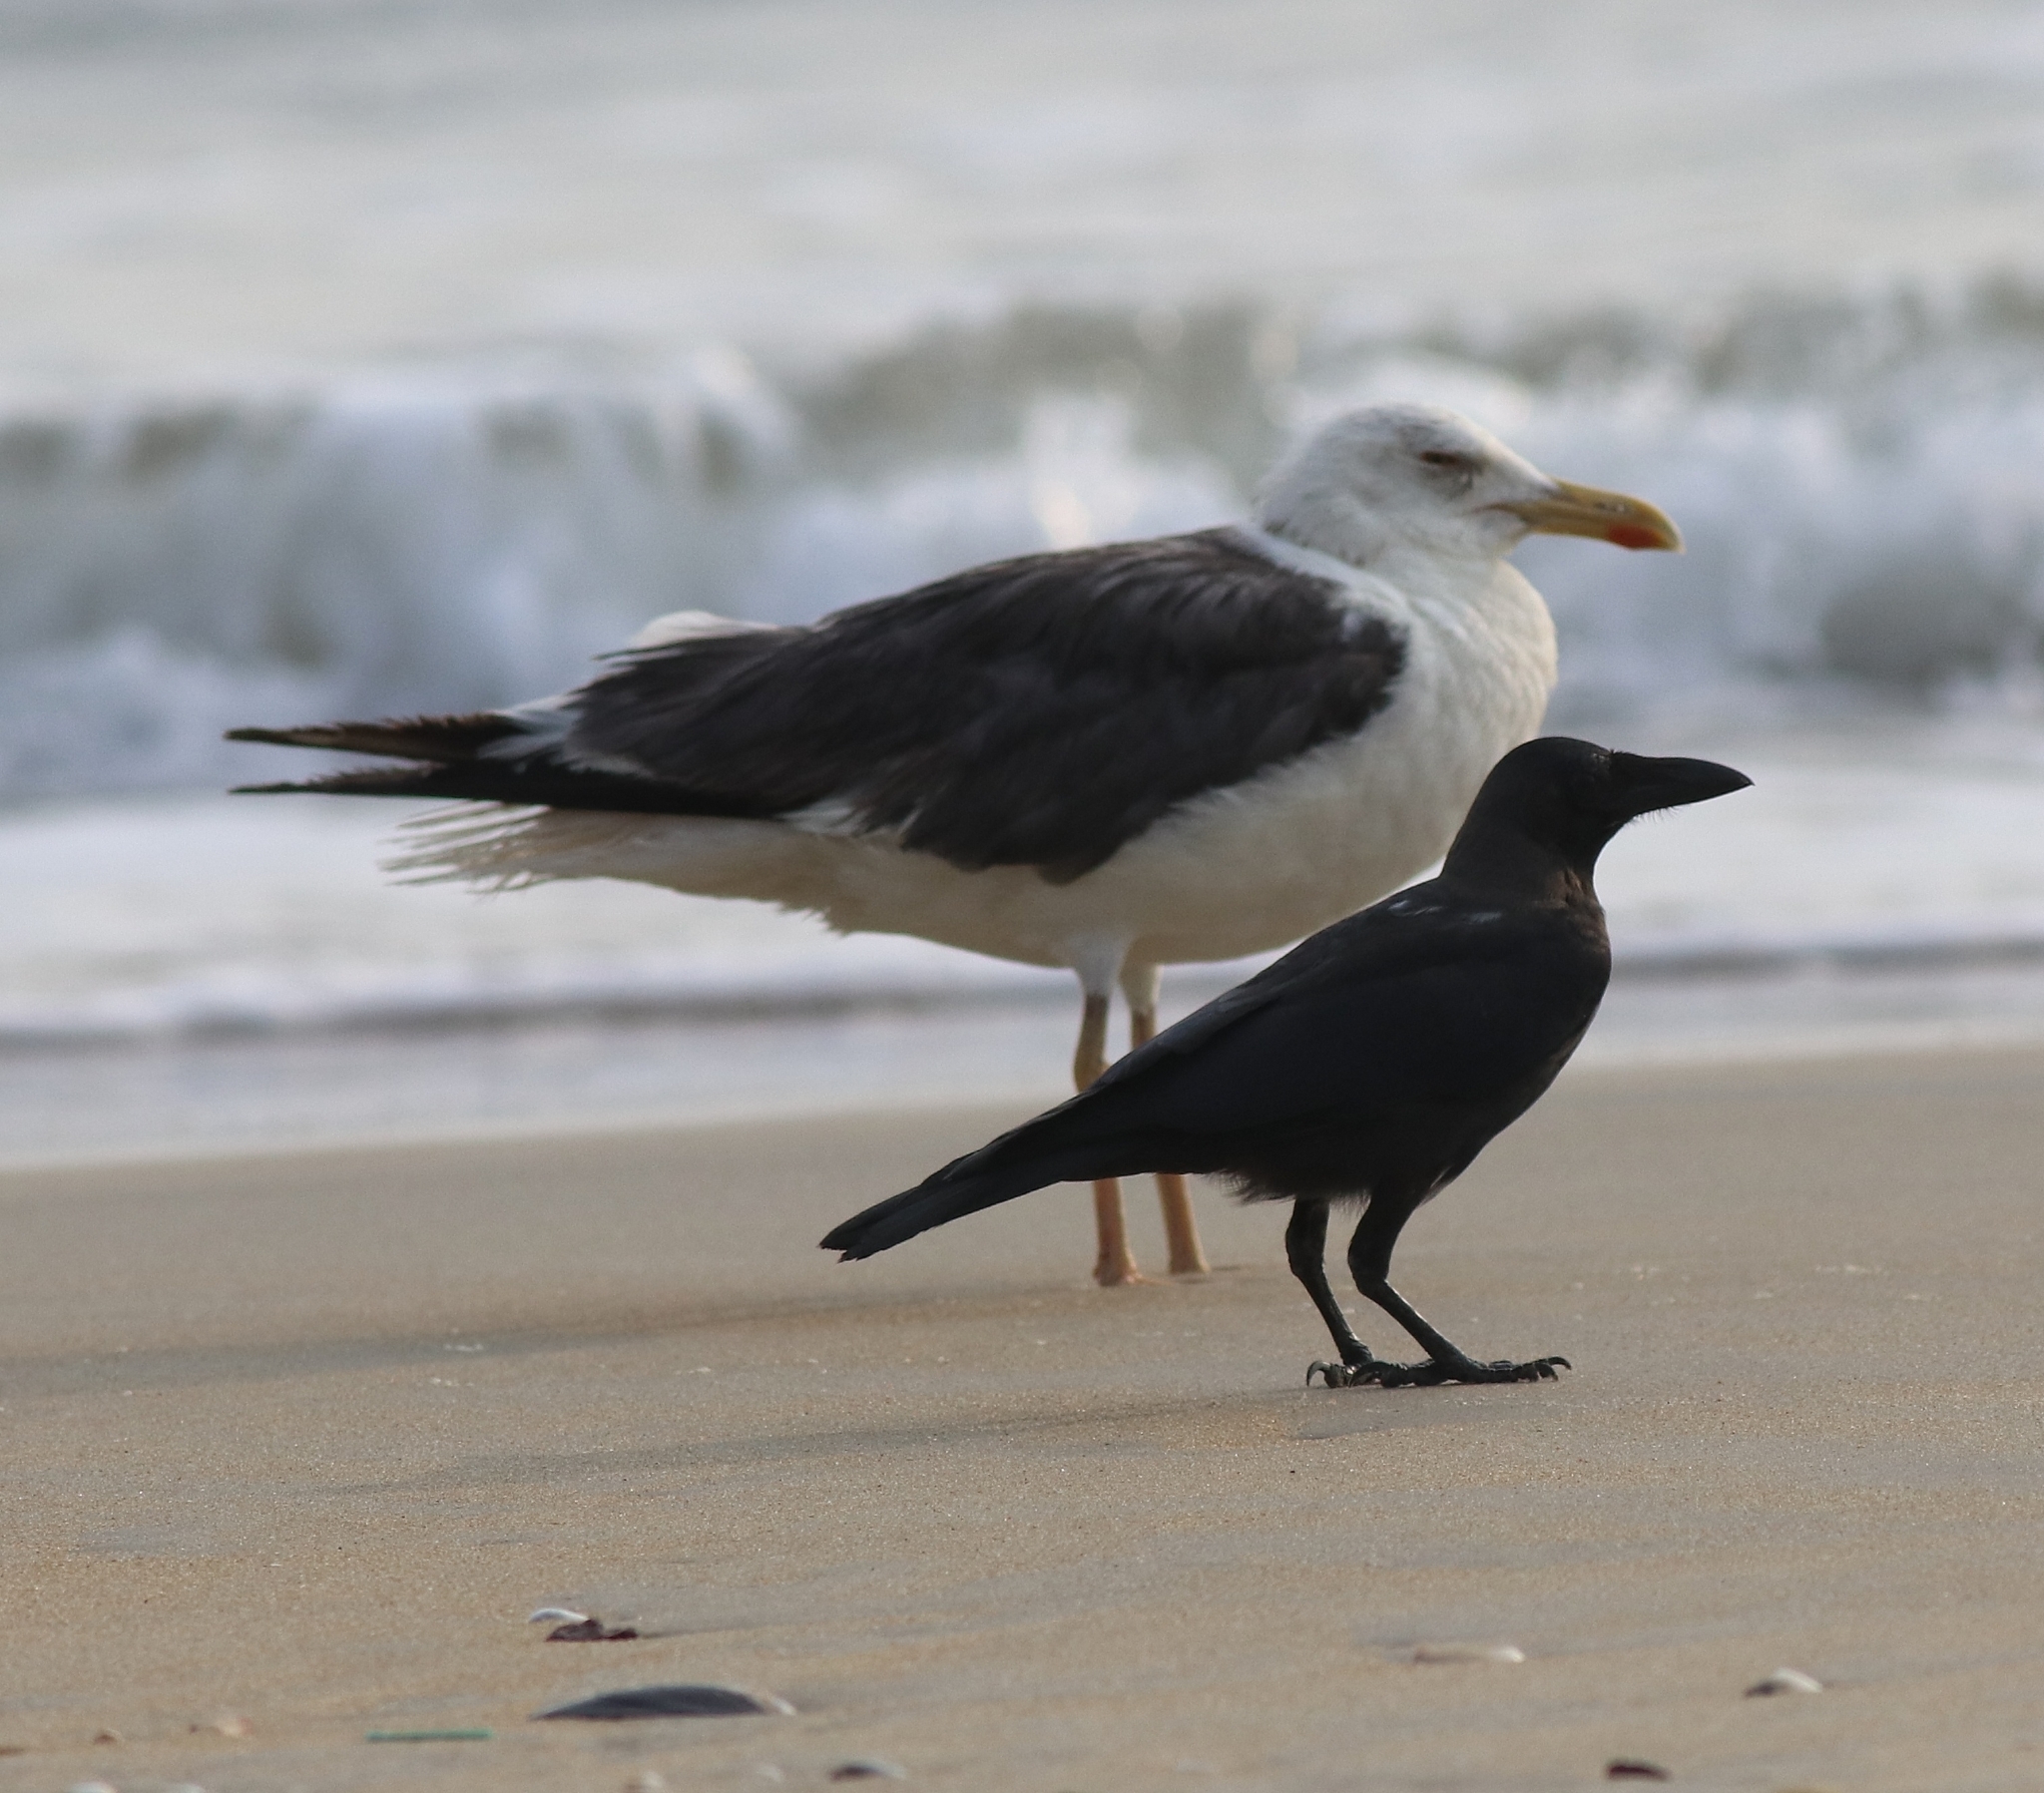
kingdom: Animalia
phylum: Chordata
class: Aves
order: Passeriformes
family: Corvidae
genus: Corvus
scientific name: Corvus splendens
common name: House crow
